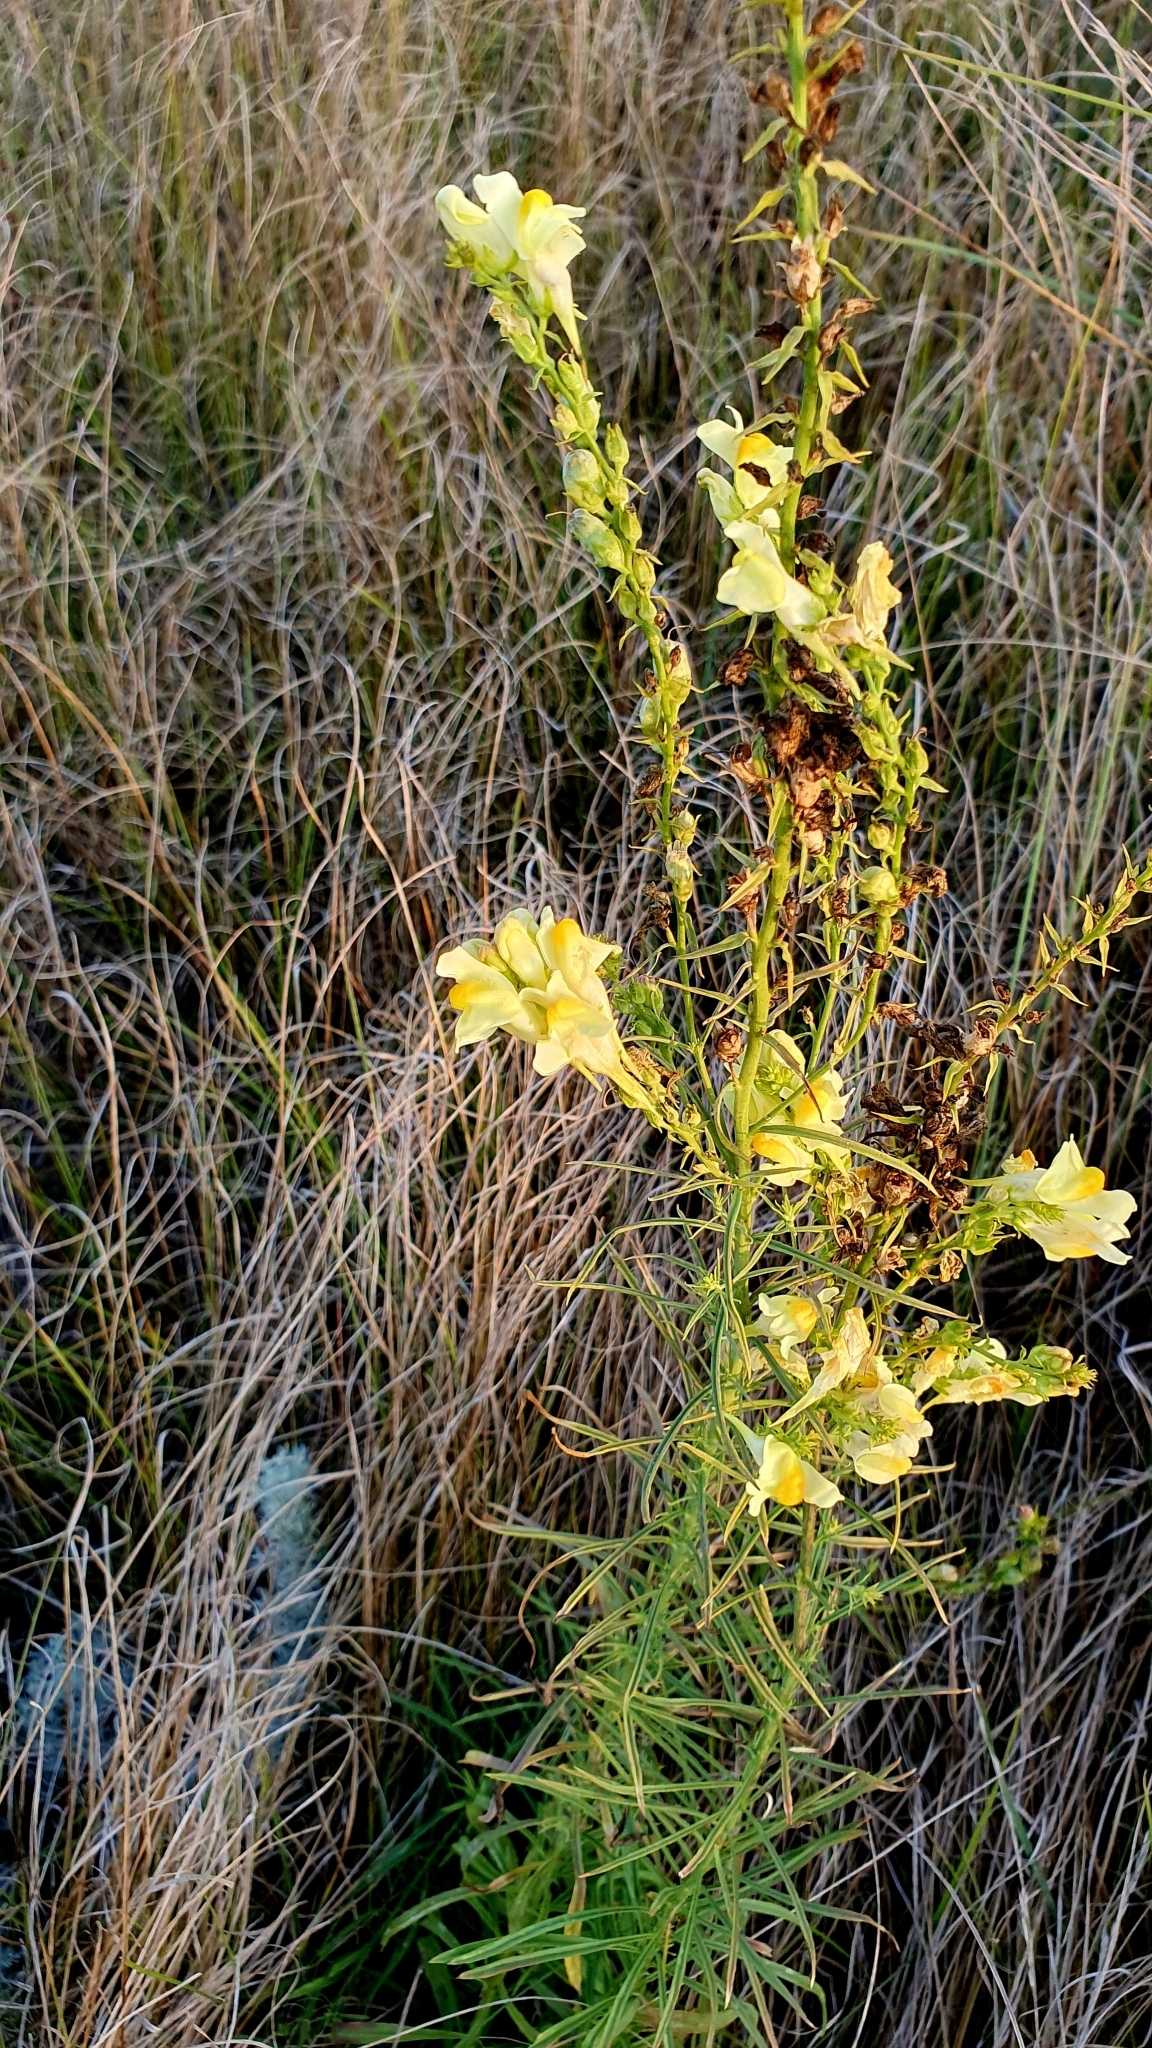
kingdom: Plantae
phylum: Tracheophyta
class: Magnoliopsida
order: Lamiales
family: Plantaginaceae
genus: Linaria
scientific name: Linaria vulgaris
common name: Butter and eggs
